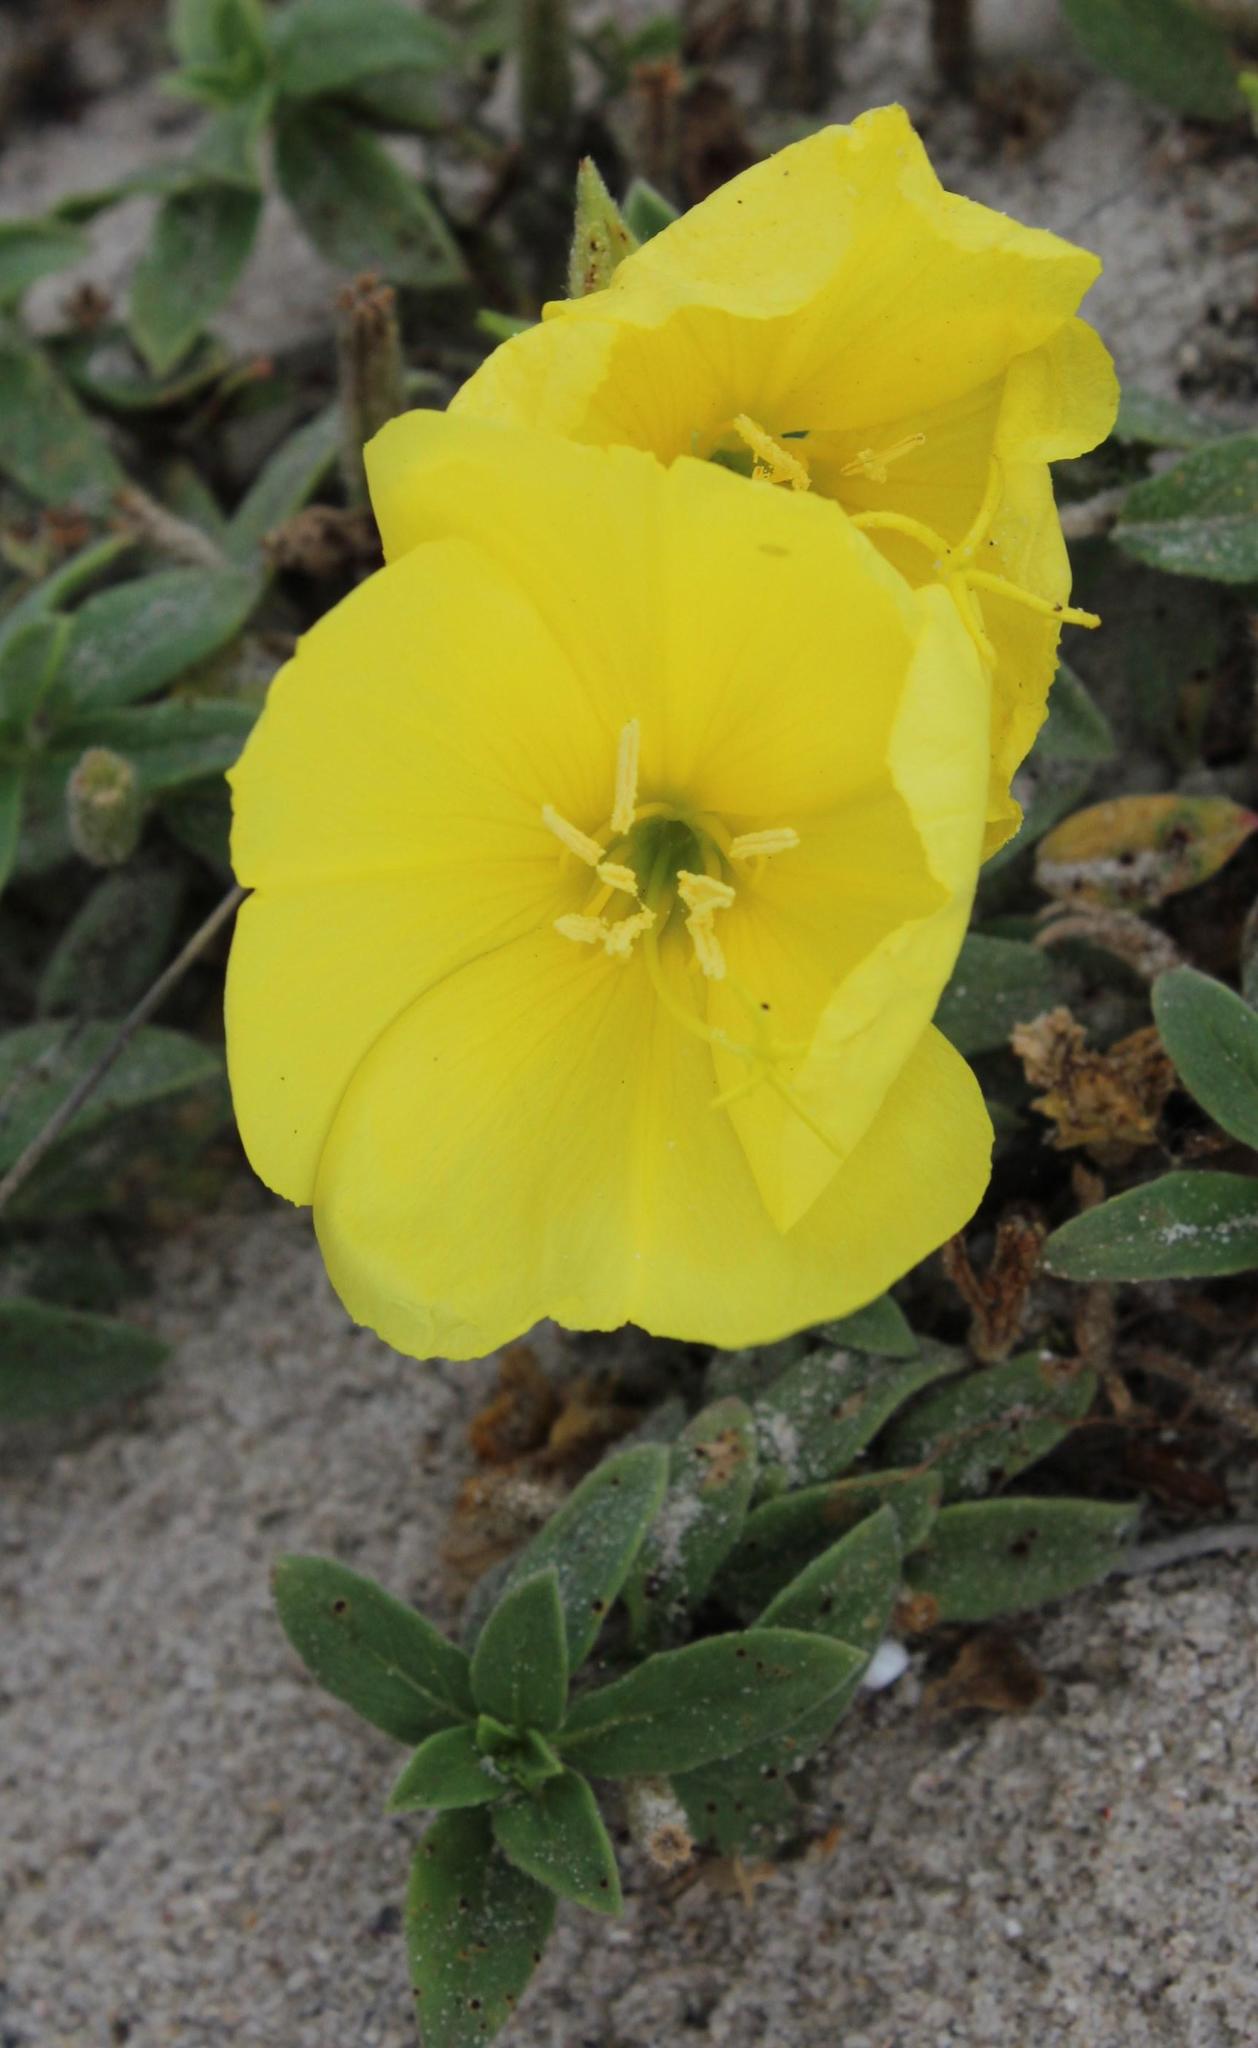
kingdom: Plantae
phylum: Tracheophyta
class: Magnoliopsida
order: Myrtales
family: Onagraceae
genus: Oenothera
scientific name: Oenothera drummondii
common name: Beach evening-primrose
